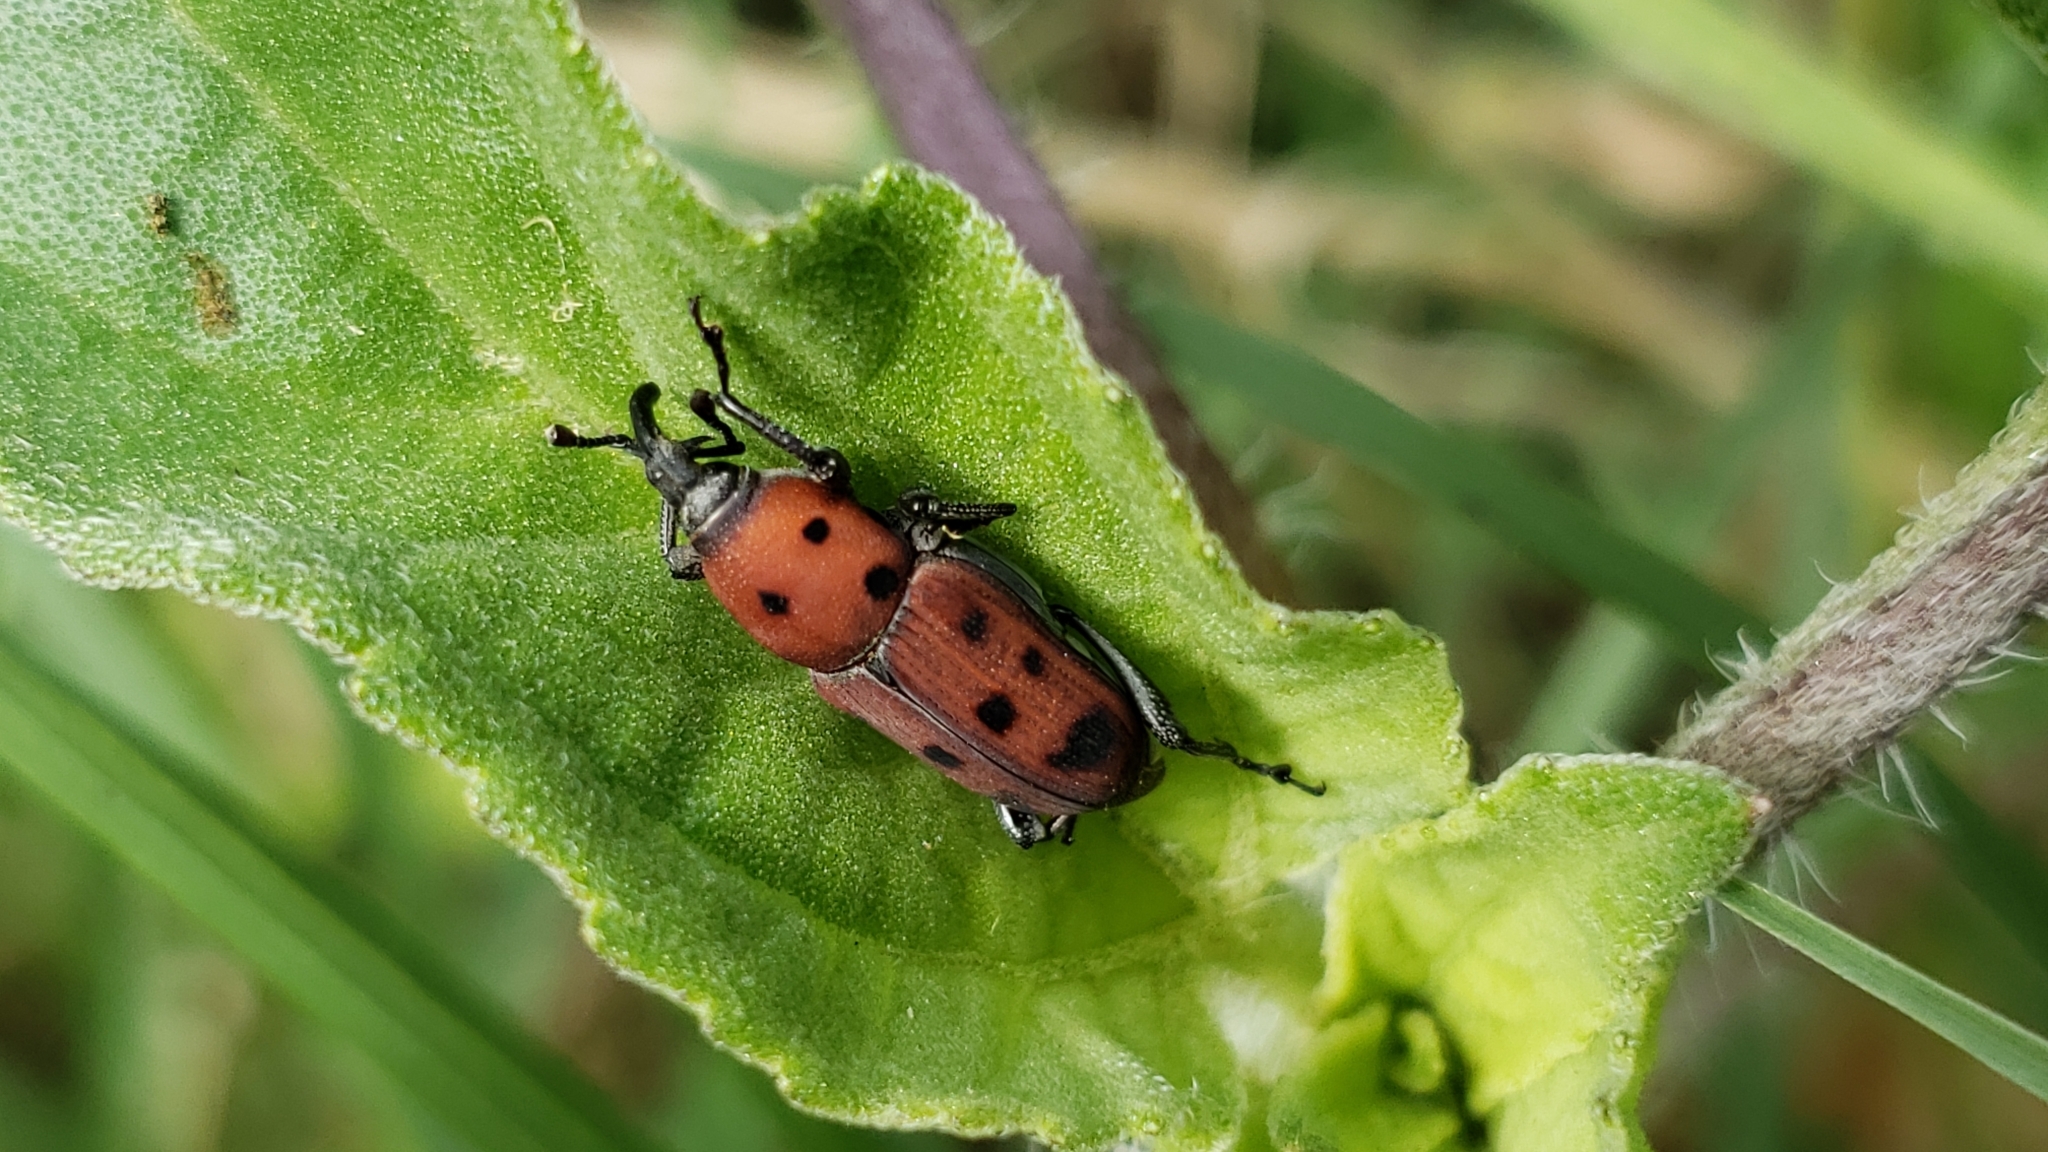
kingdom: Animalia
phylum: Arthropoda
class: Insecta
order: Coleoptera
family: Dryophthoridae
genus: Rhodobaenus
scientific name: Rhodobaenus tredecimpunctatus
